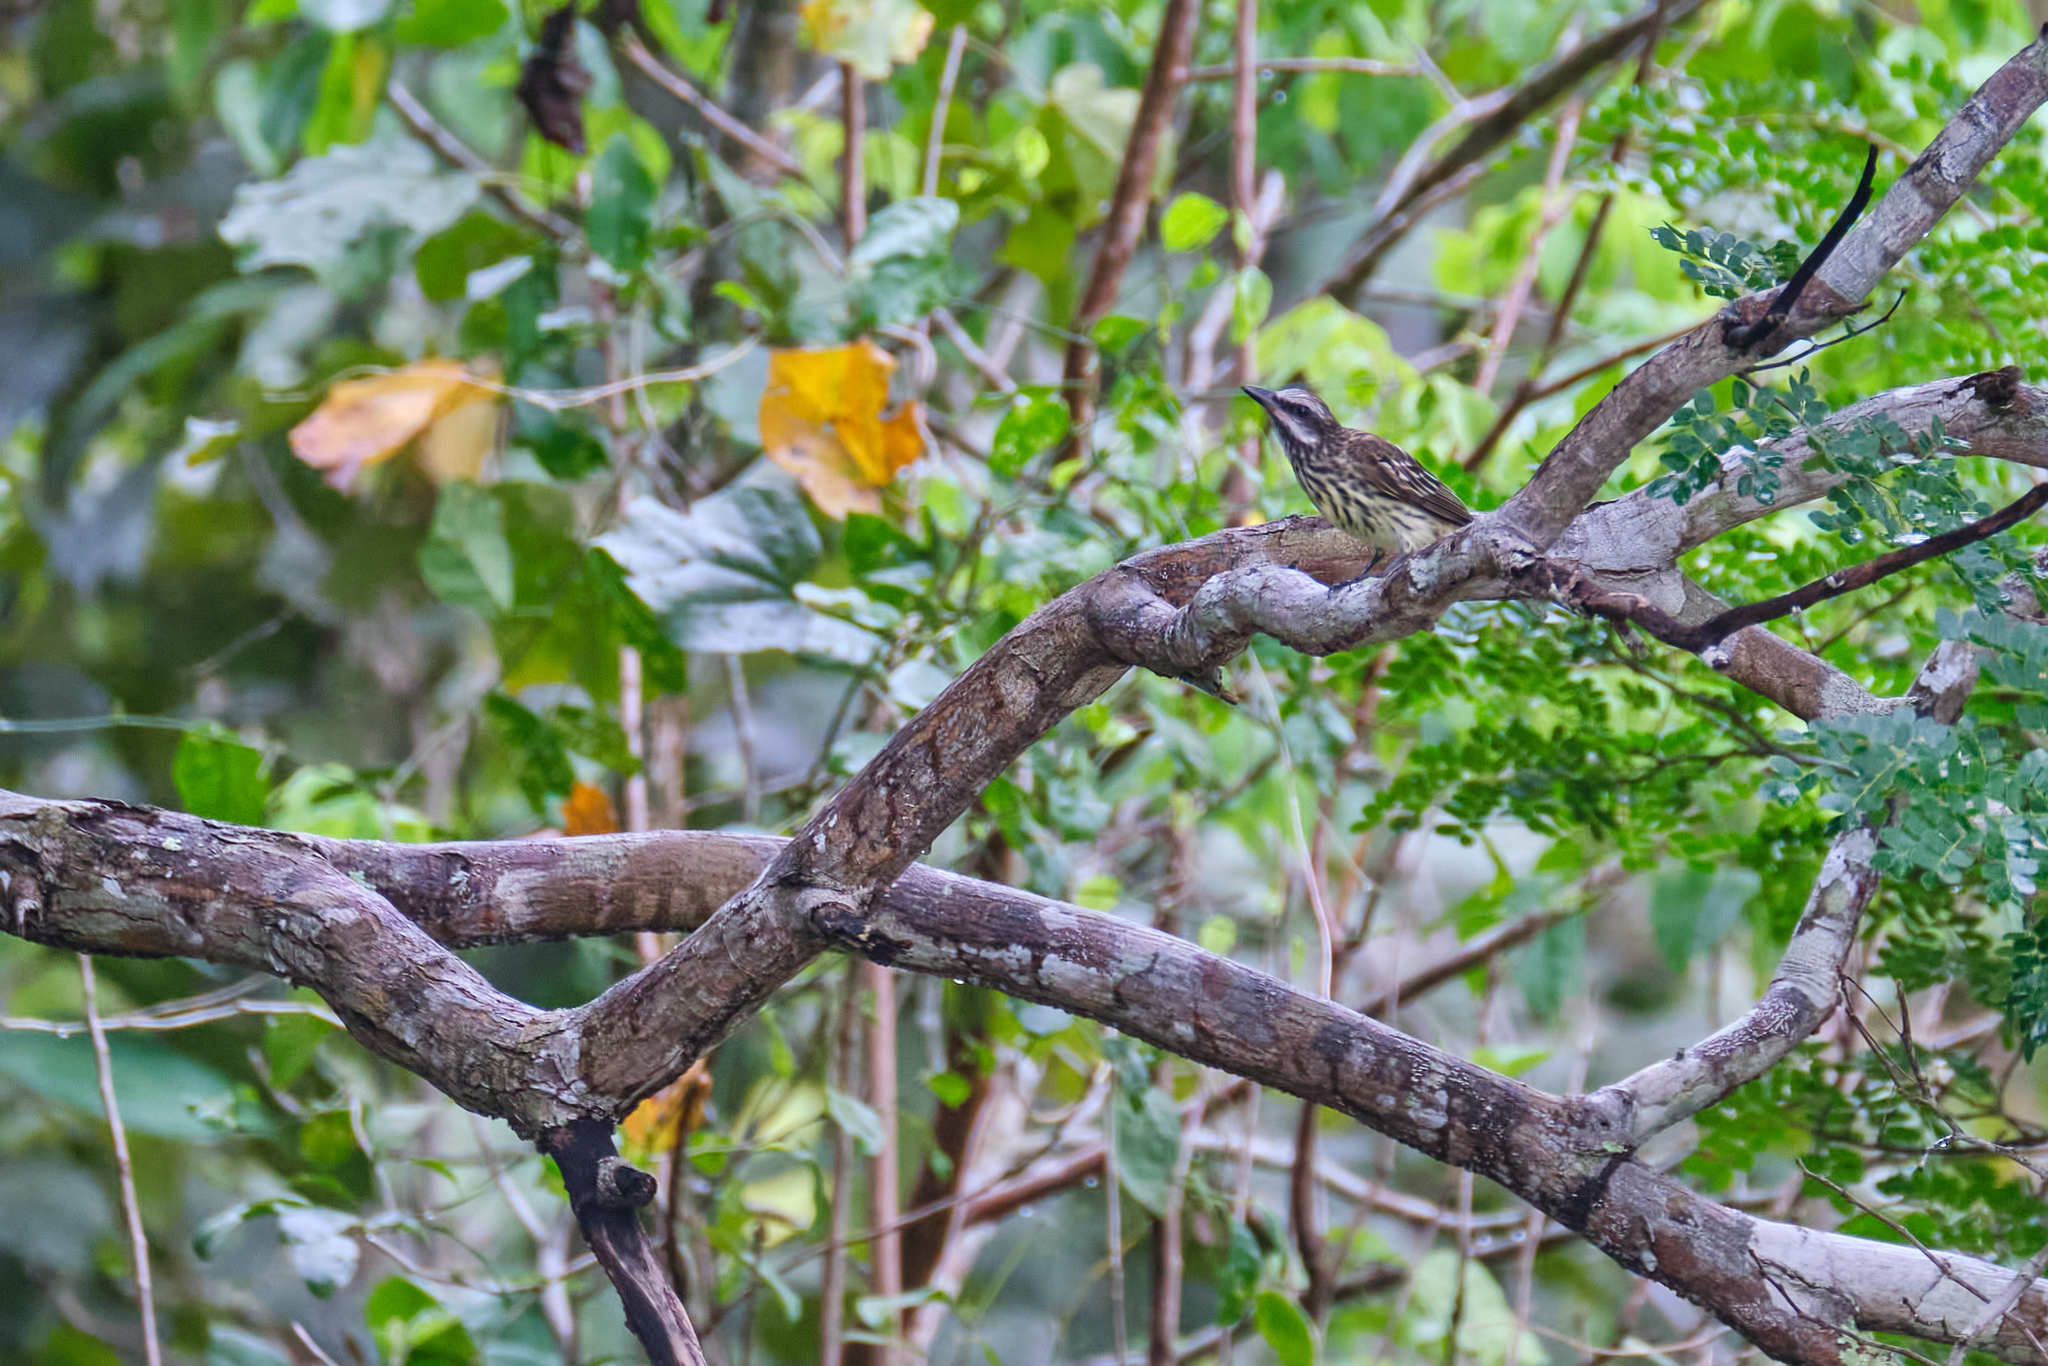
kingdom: Animalia
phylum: Chordata
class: Aves
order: Passeriformes
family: Tyrannidae
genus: Myiodynastes
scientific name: Myiodynastes luteiventris
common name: Sulphur-bellied flycatcher
